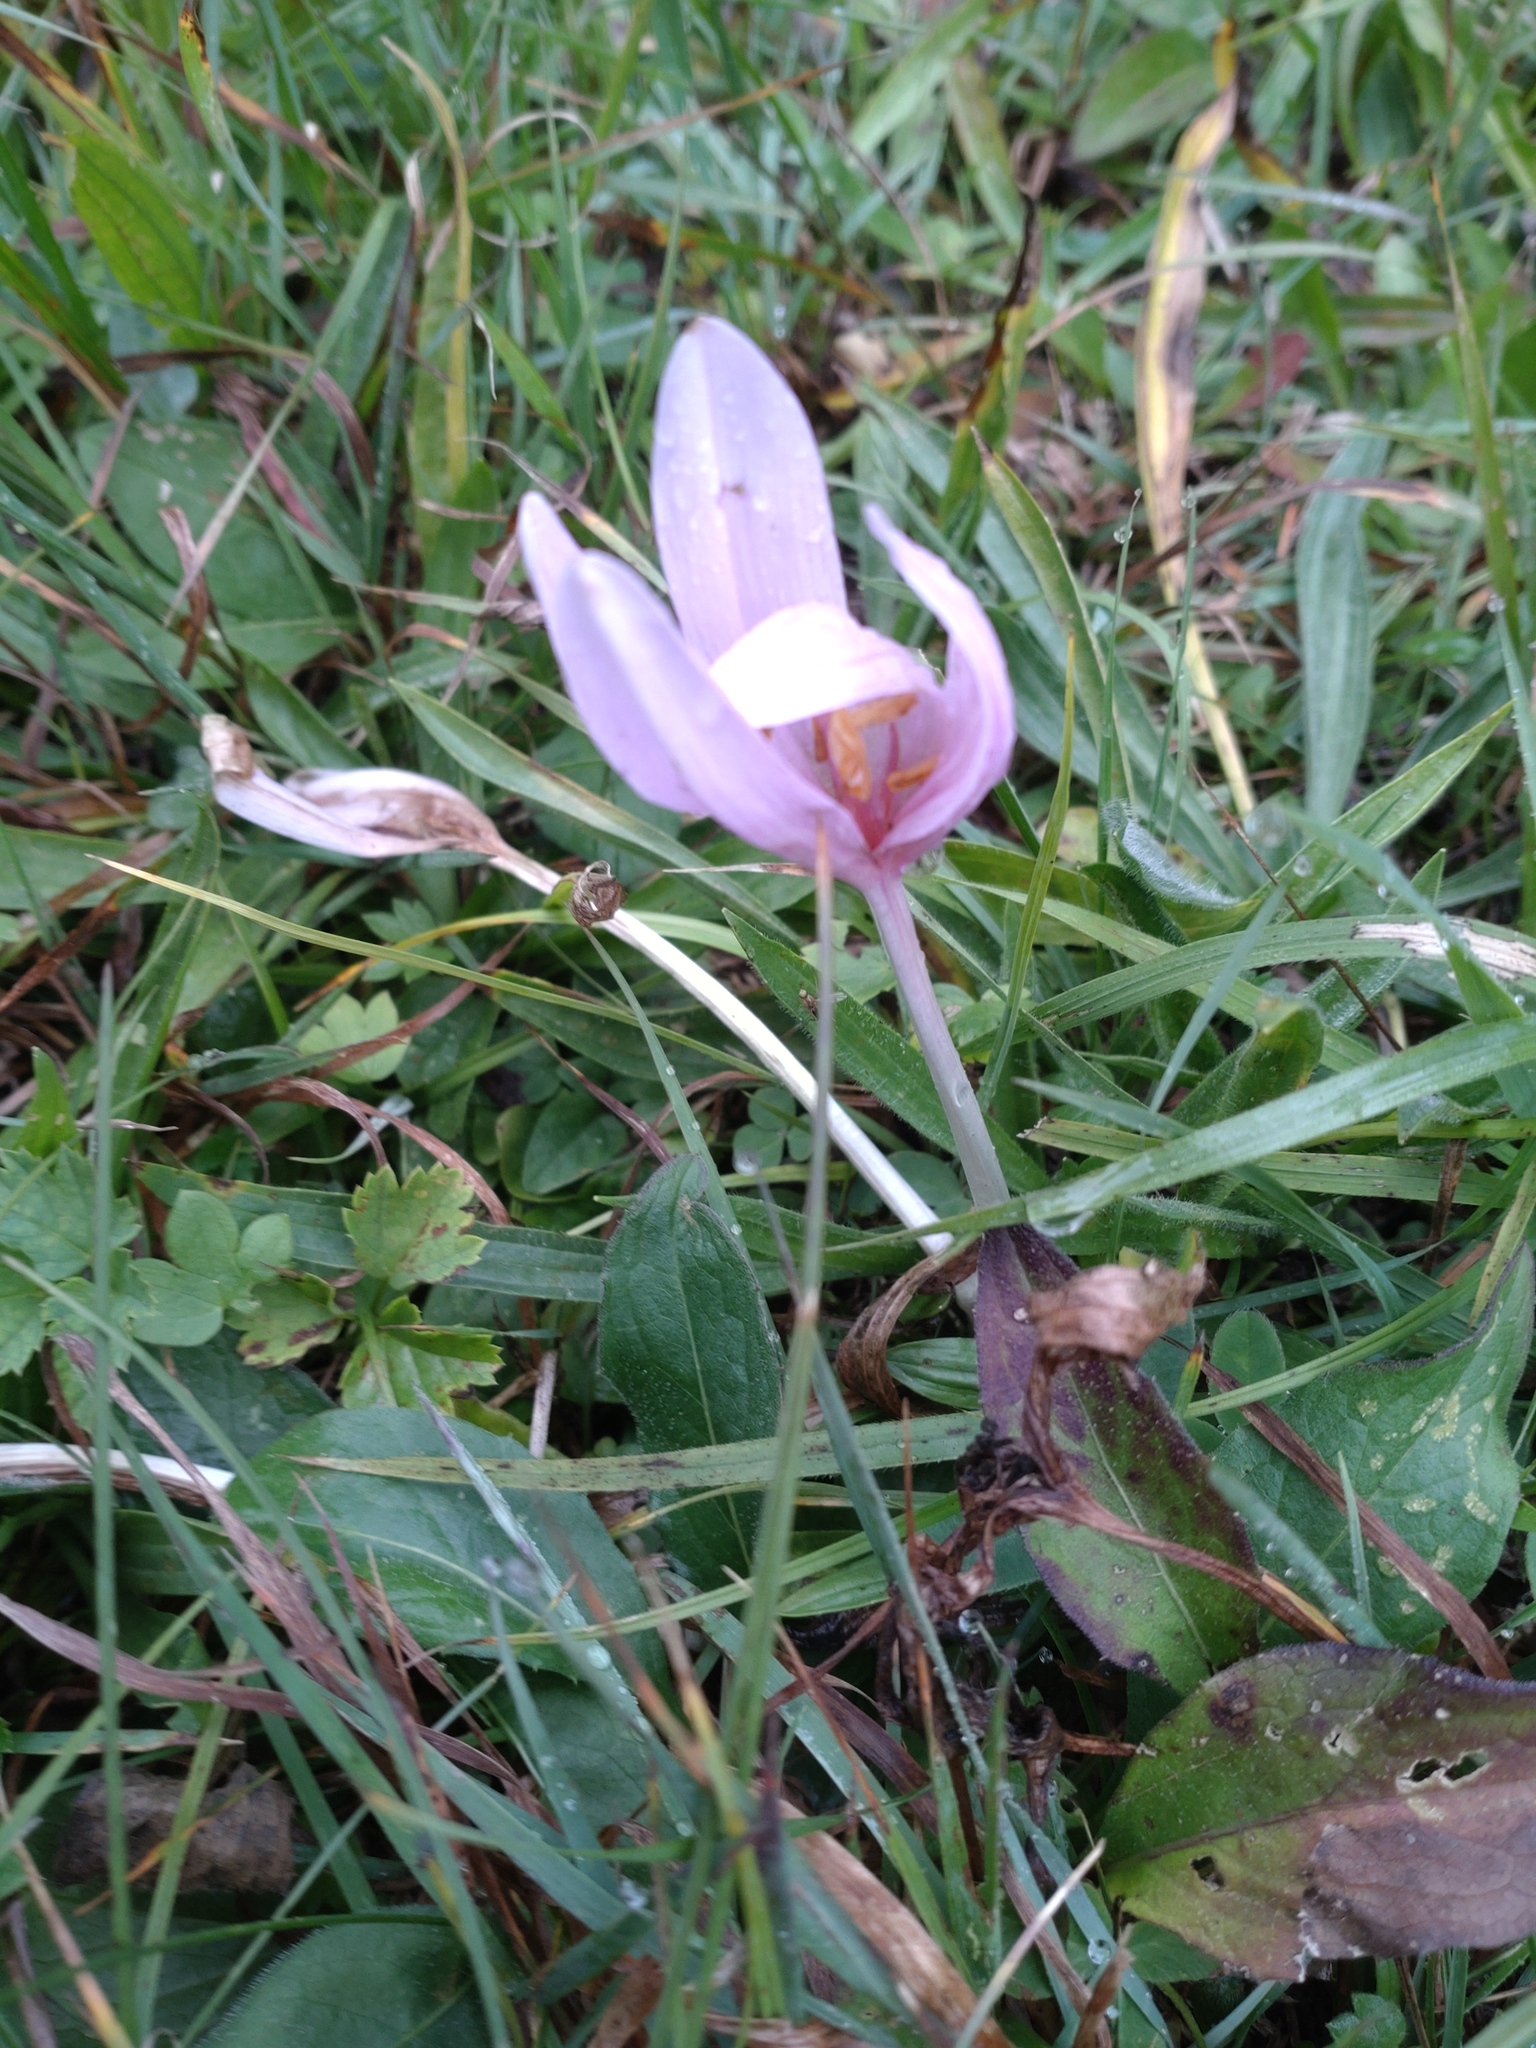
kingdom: Plantae
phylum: Tracheophyta
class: Liliopsida
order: Liliales
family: Colchicaceae
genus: Colchicum
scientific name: Colchicum autumnale
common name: Autumn crocus
